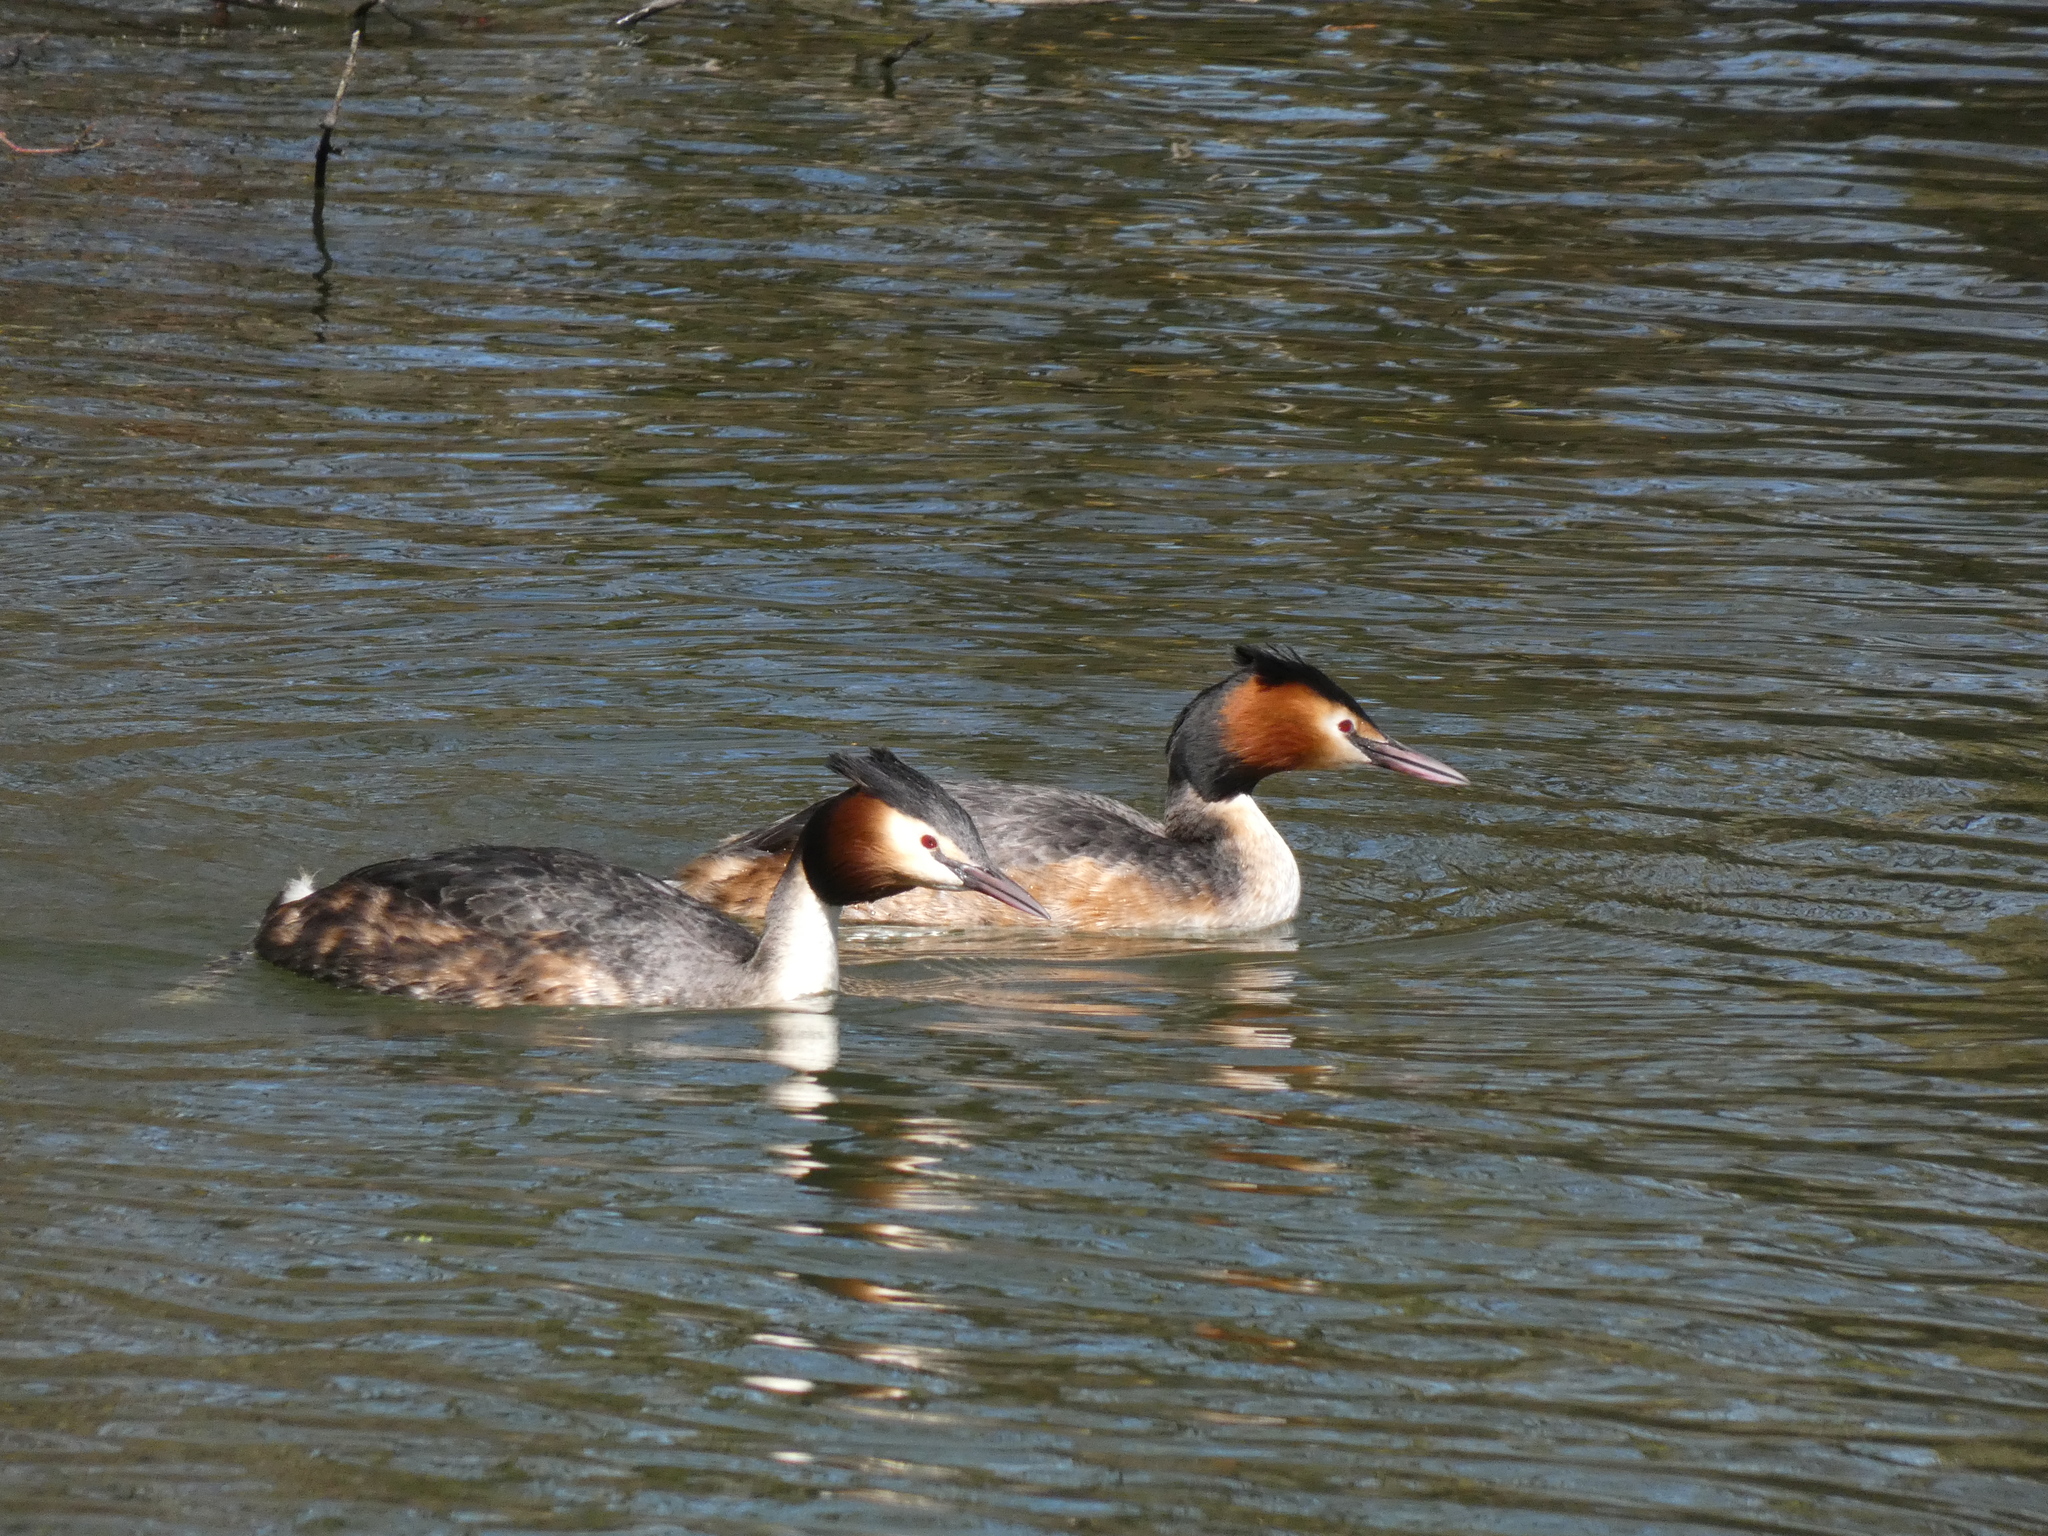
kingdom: Animalia
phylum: Chordata
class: Aves
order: Podicipediformes
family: Podicipedidae
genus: Podiceps
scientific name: Podiceps cristatus
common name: Great crested grebe
